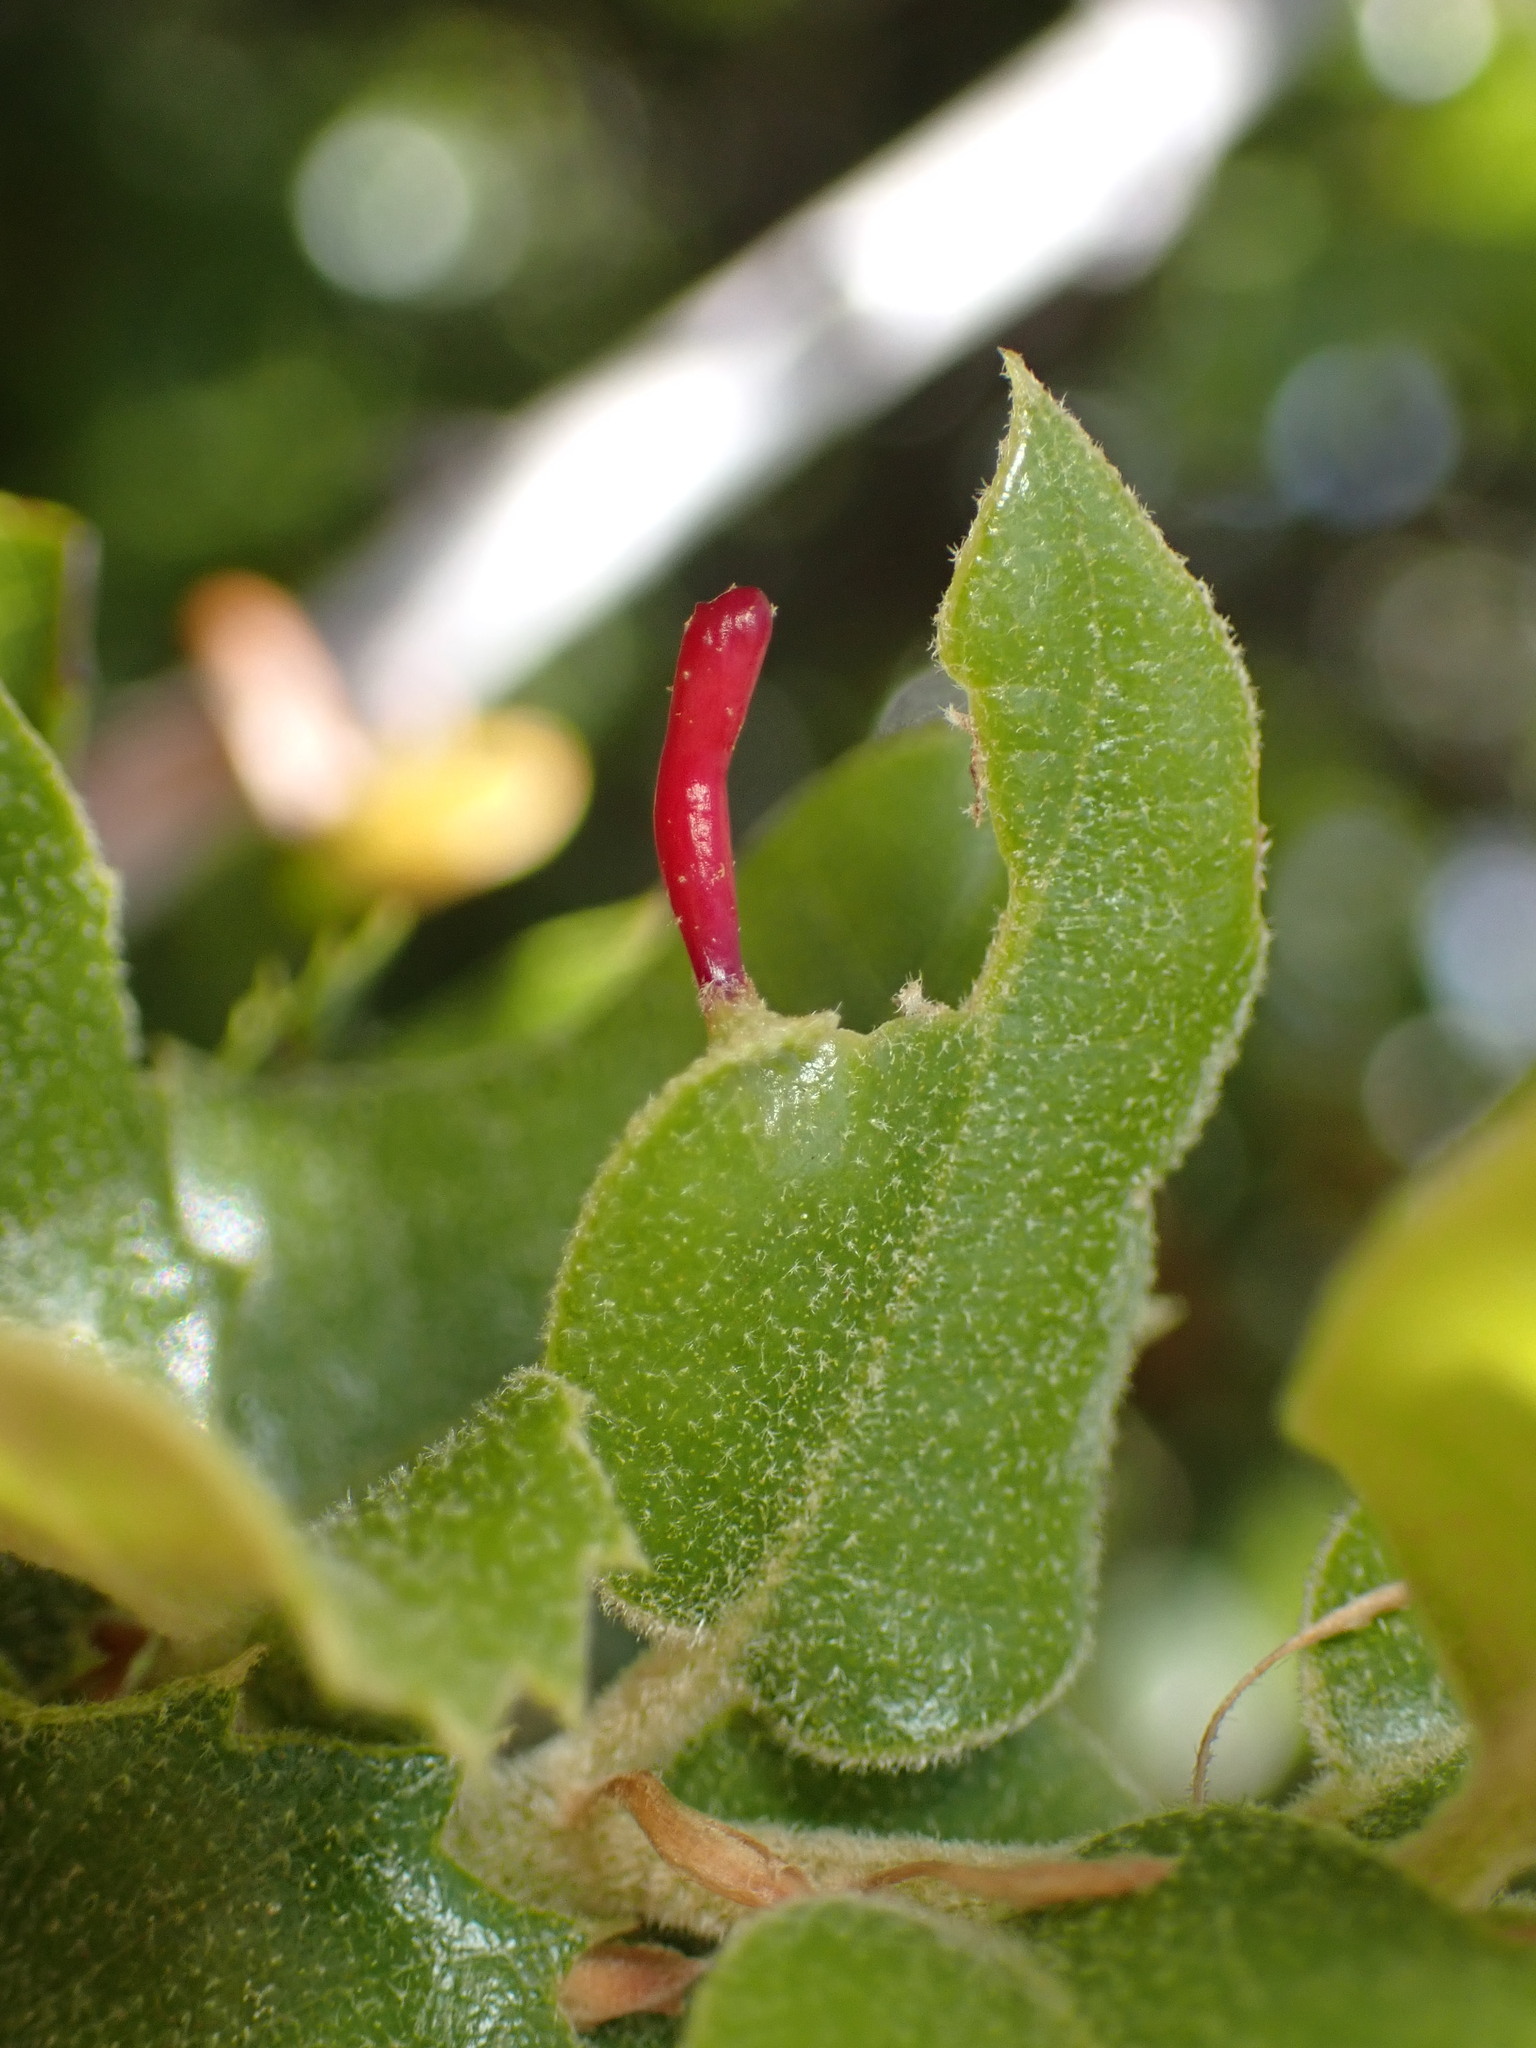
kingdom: Animalia
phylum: Arthropoda
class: Insecta
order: Hymenoptera
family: Cynipidae
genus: Heteroecus
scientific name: Heteroecus
